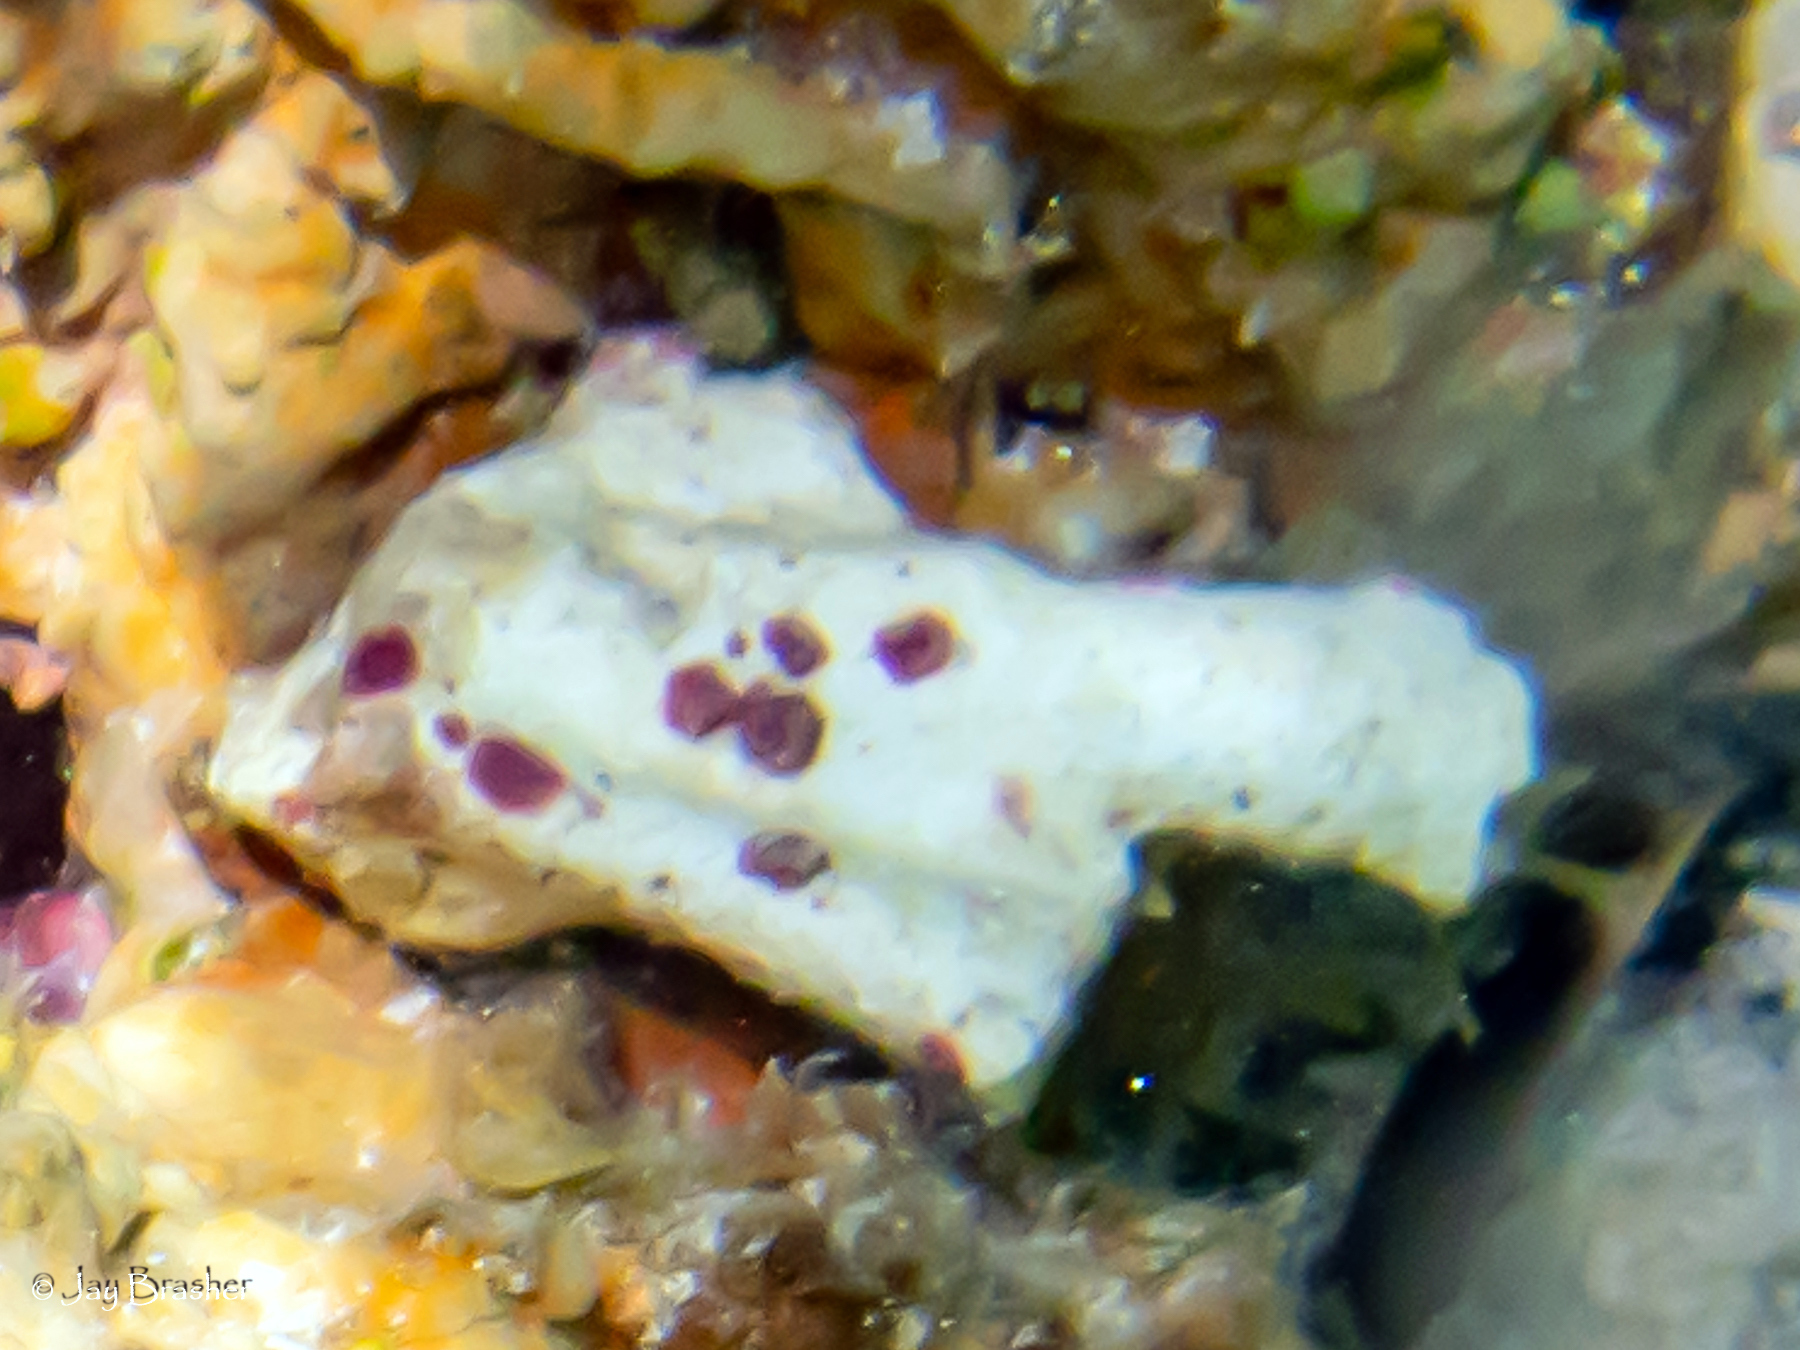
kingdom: Chromista
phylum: Foraminifera
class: Globothalamea
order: Rotaliida
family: Homotrematidae
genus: Homotrema
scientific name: Homotrema rubrum
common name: Red foram
